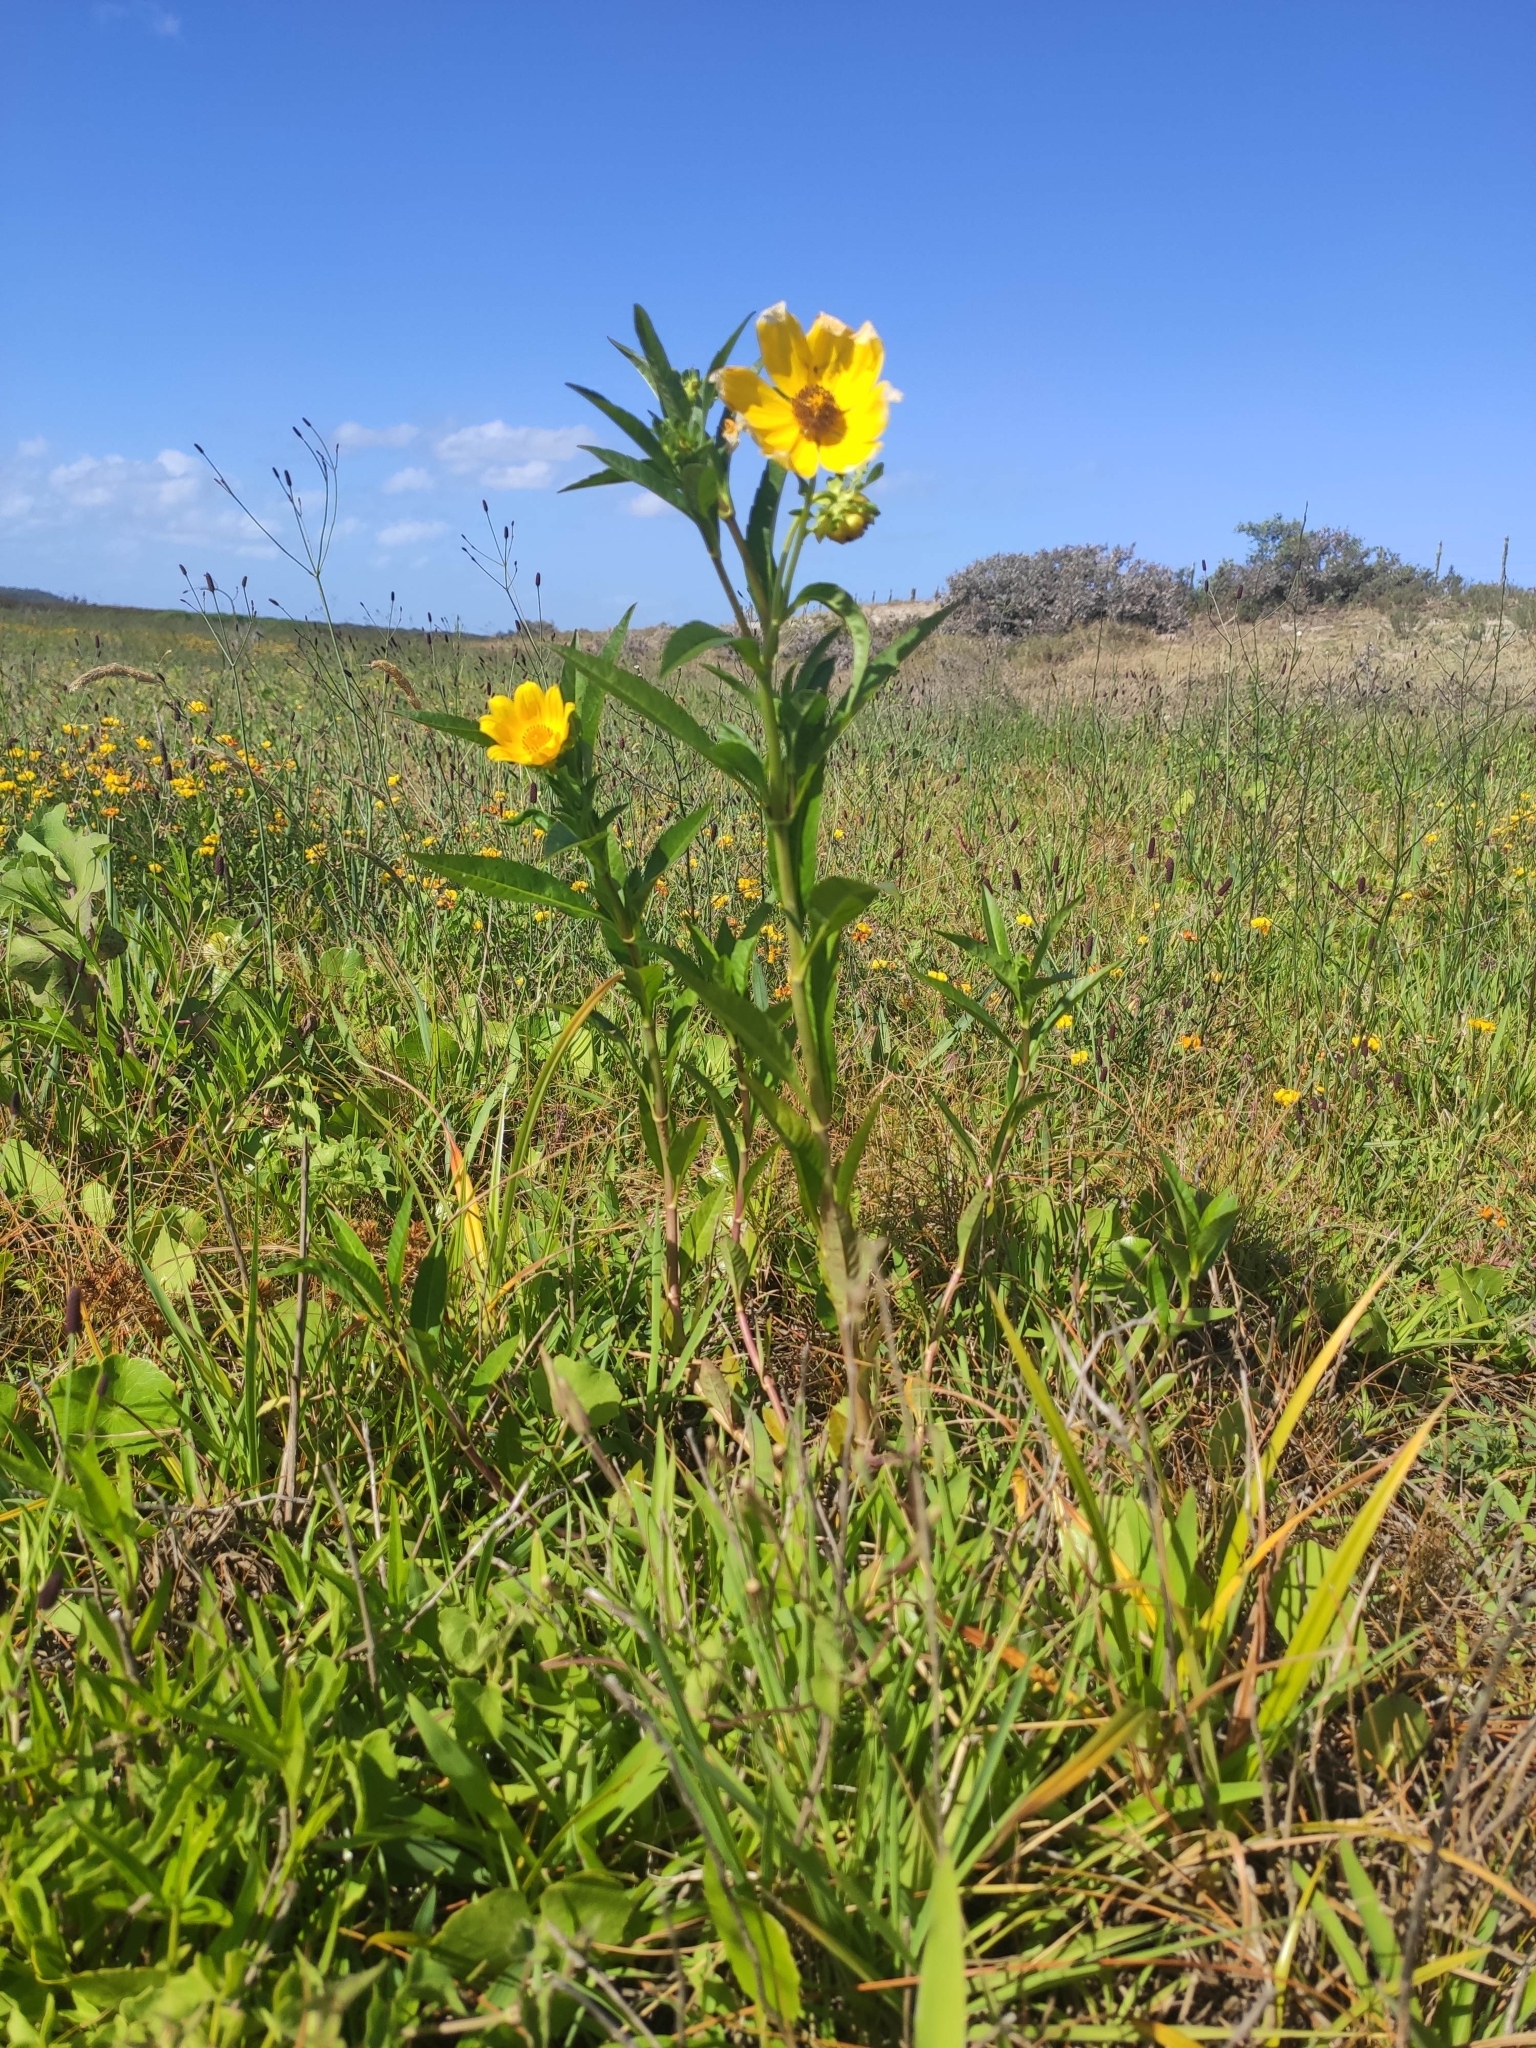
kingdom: Plantae
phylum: Tracheophyta
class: Magnoliopsida
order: Asterales
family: Asteraceae
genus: Bidens
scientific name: Bidens laevis
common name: Larger bur-marigold
